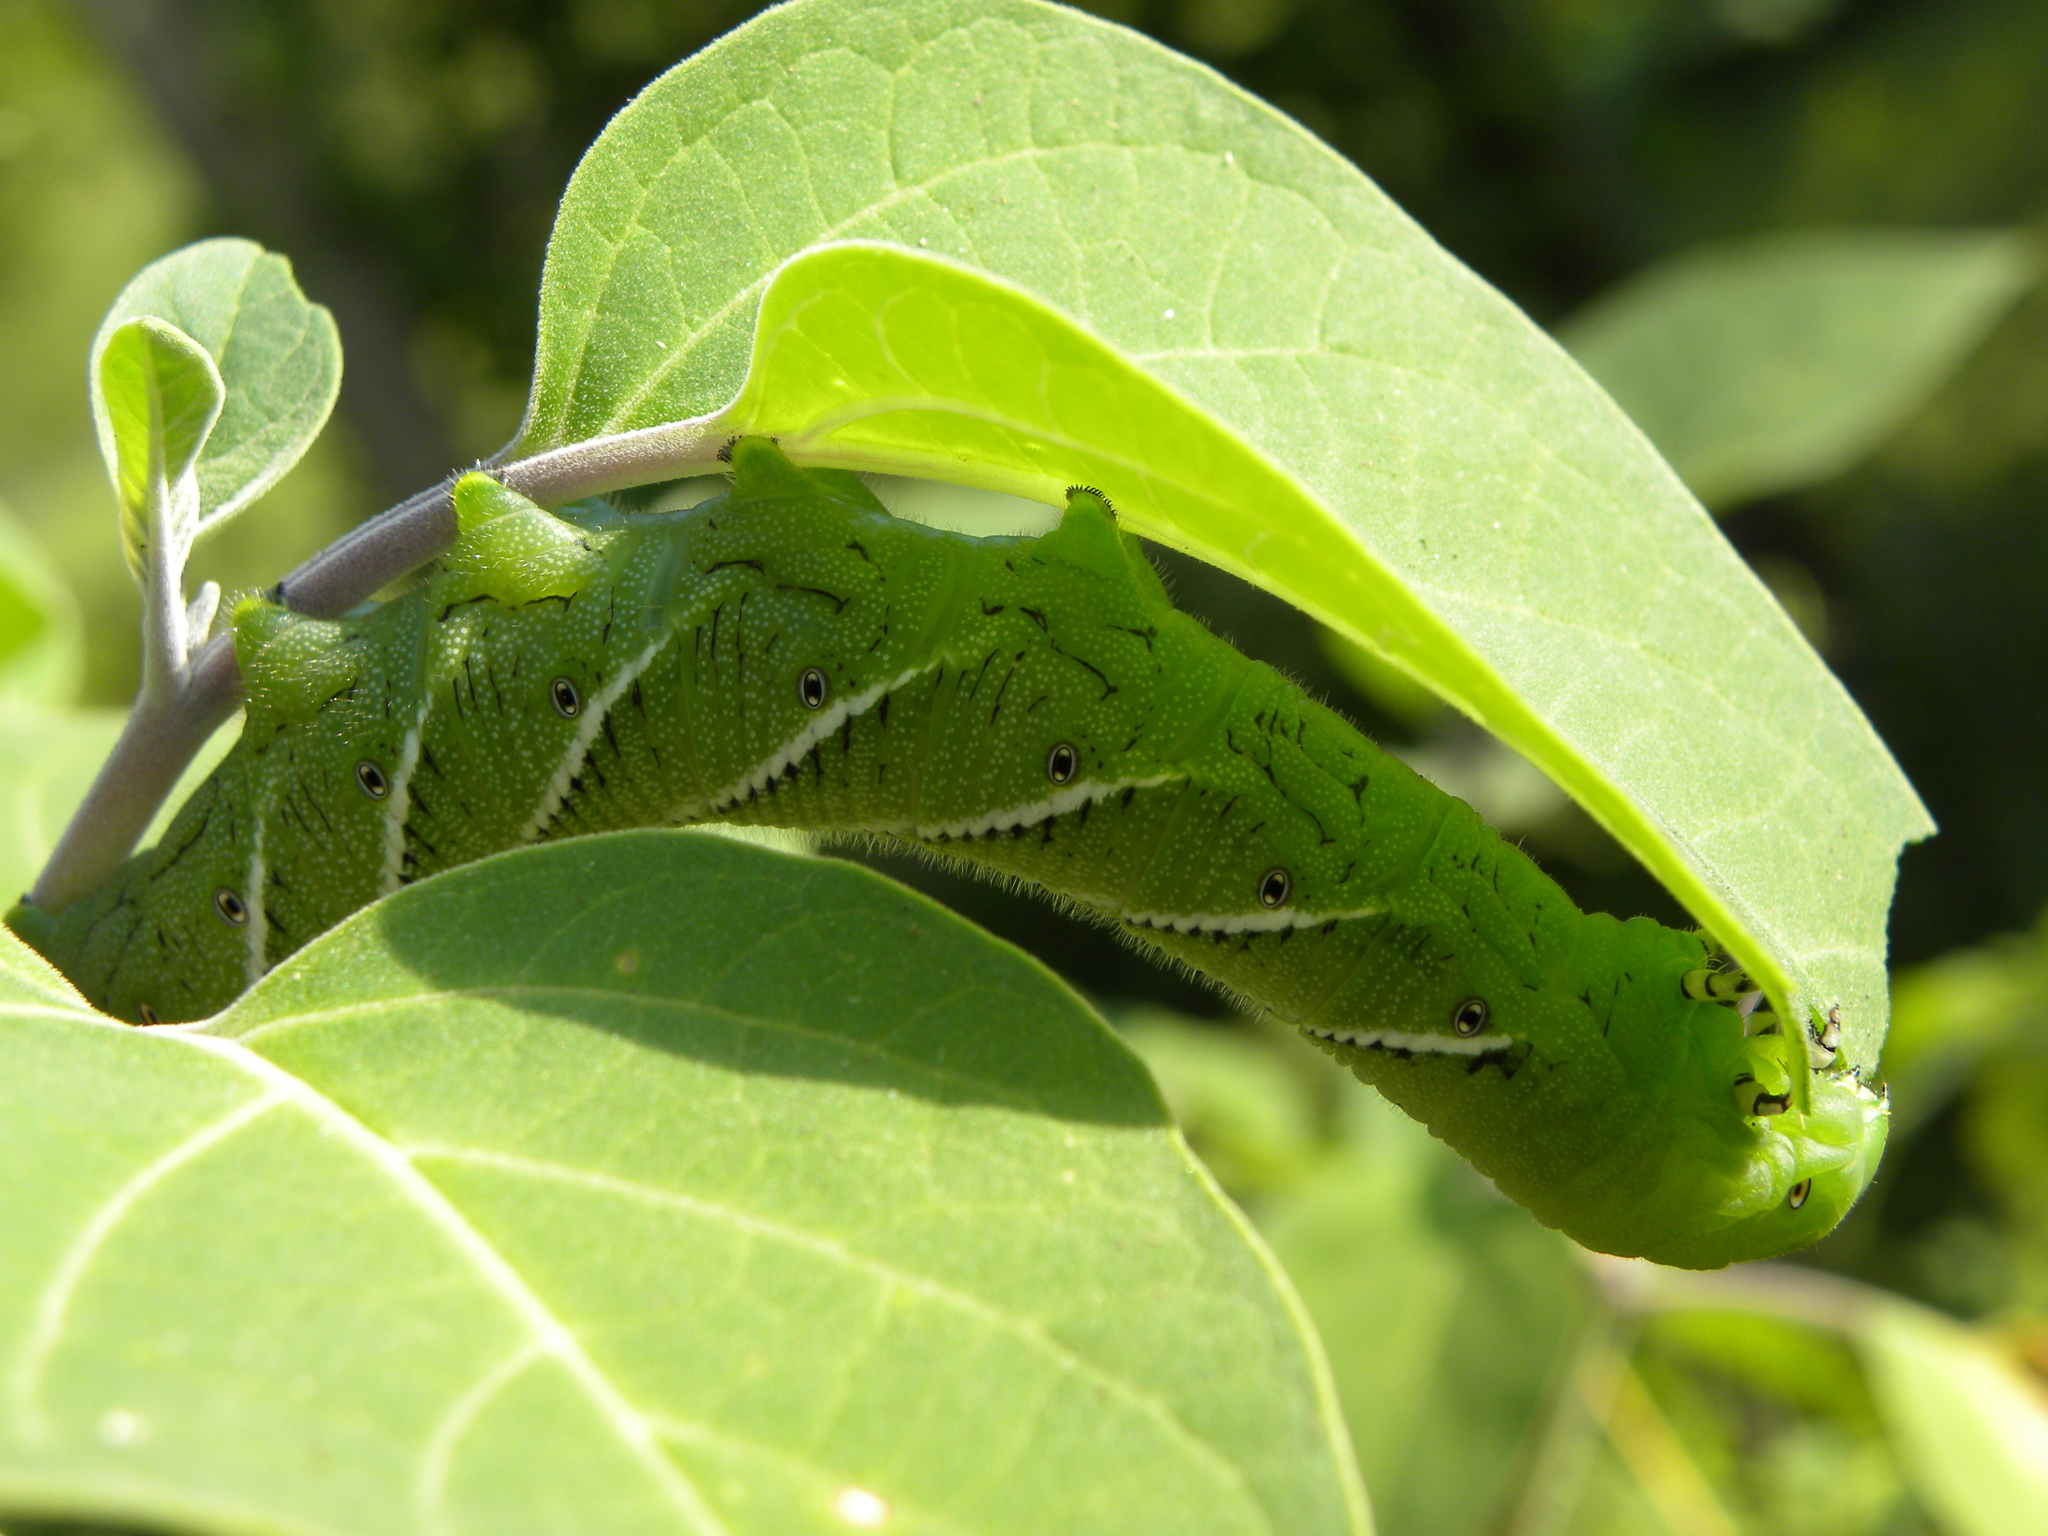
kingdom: Animalia
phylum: Arthropoda
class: Insecta
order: Lepidoptera
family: Sphingidae
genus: Manduca
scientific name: Manduca sexta
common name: Carolina sphinx
